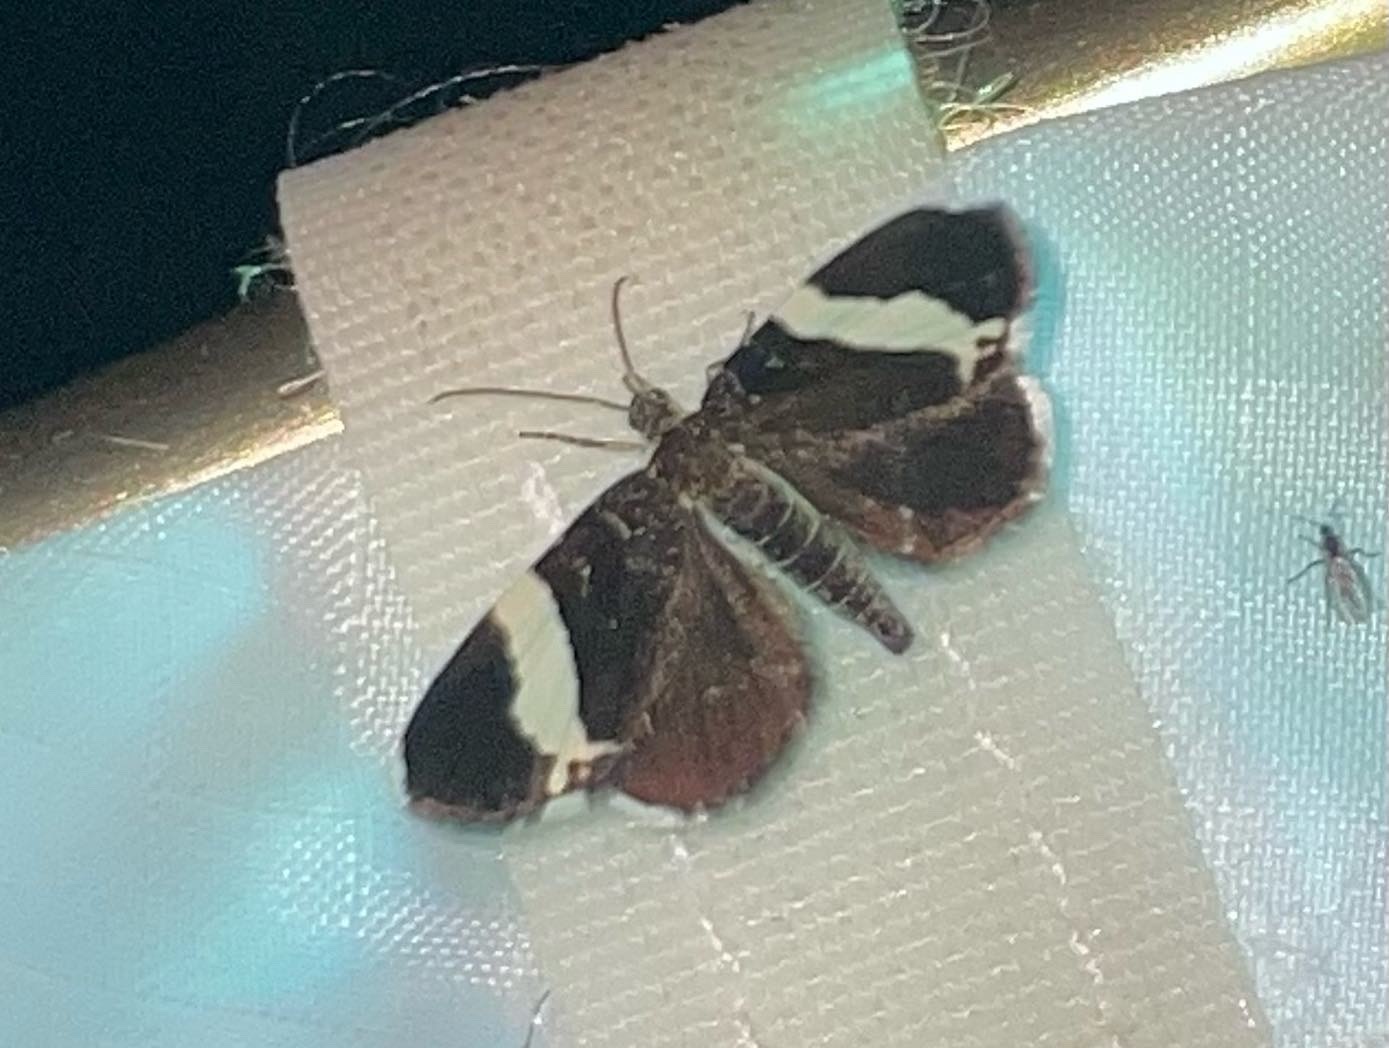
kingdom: Animalia
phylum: Arthropoda
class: Insecta
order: Lepidoptera
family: Geometridae
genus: Trichodezia
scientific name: Trichodezia albovittata
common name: White striped black
